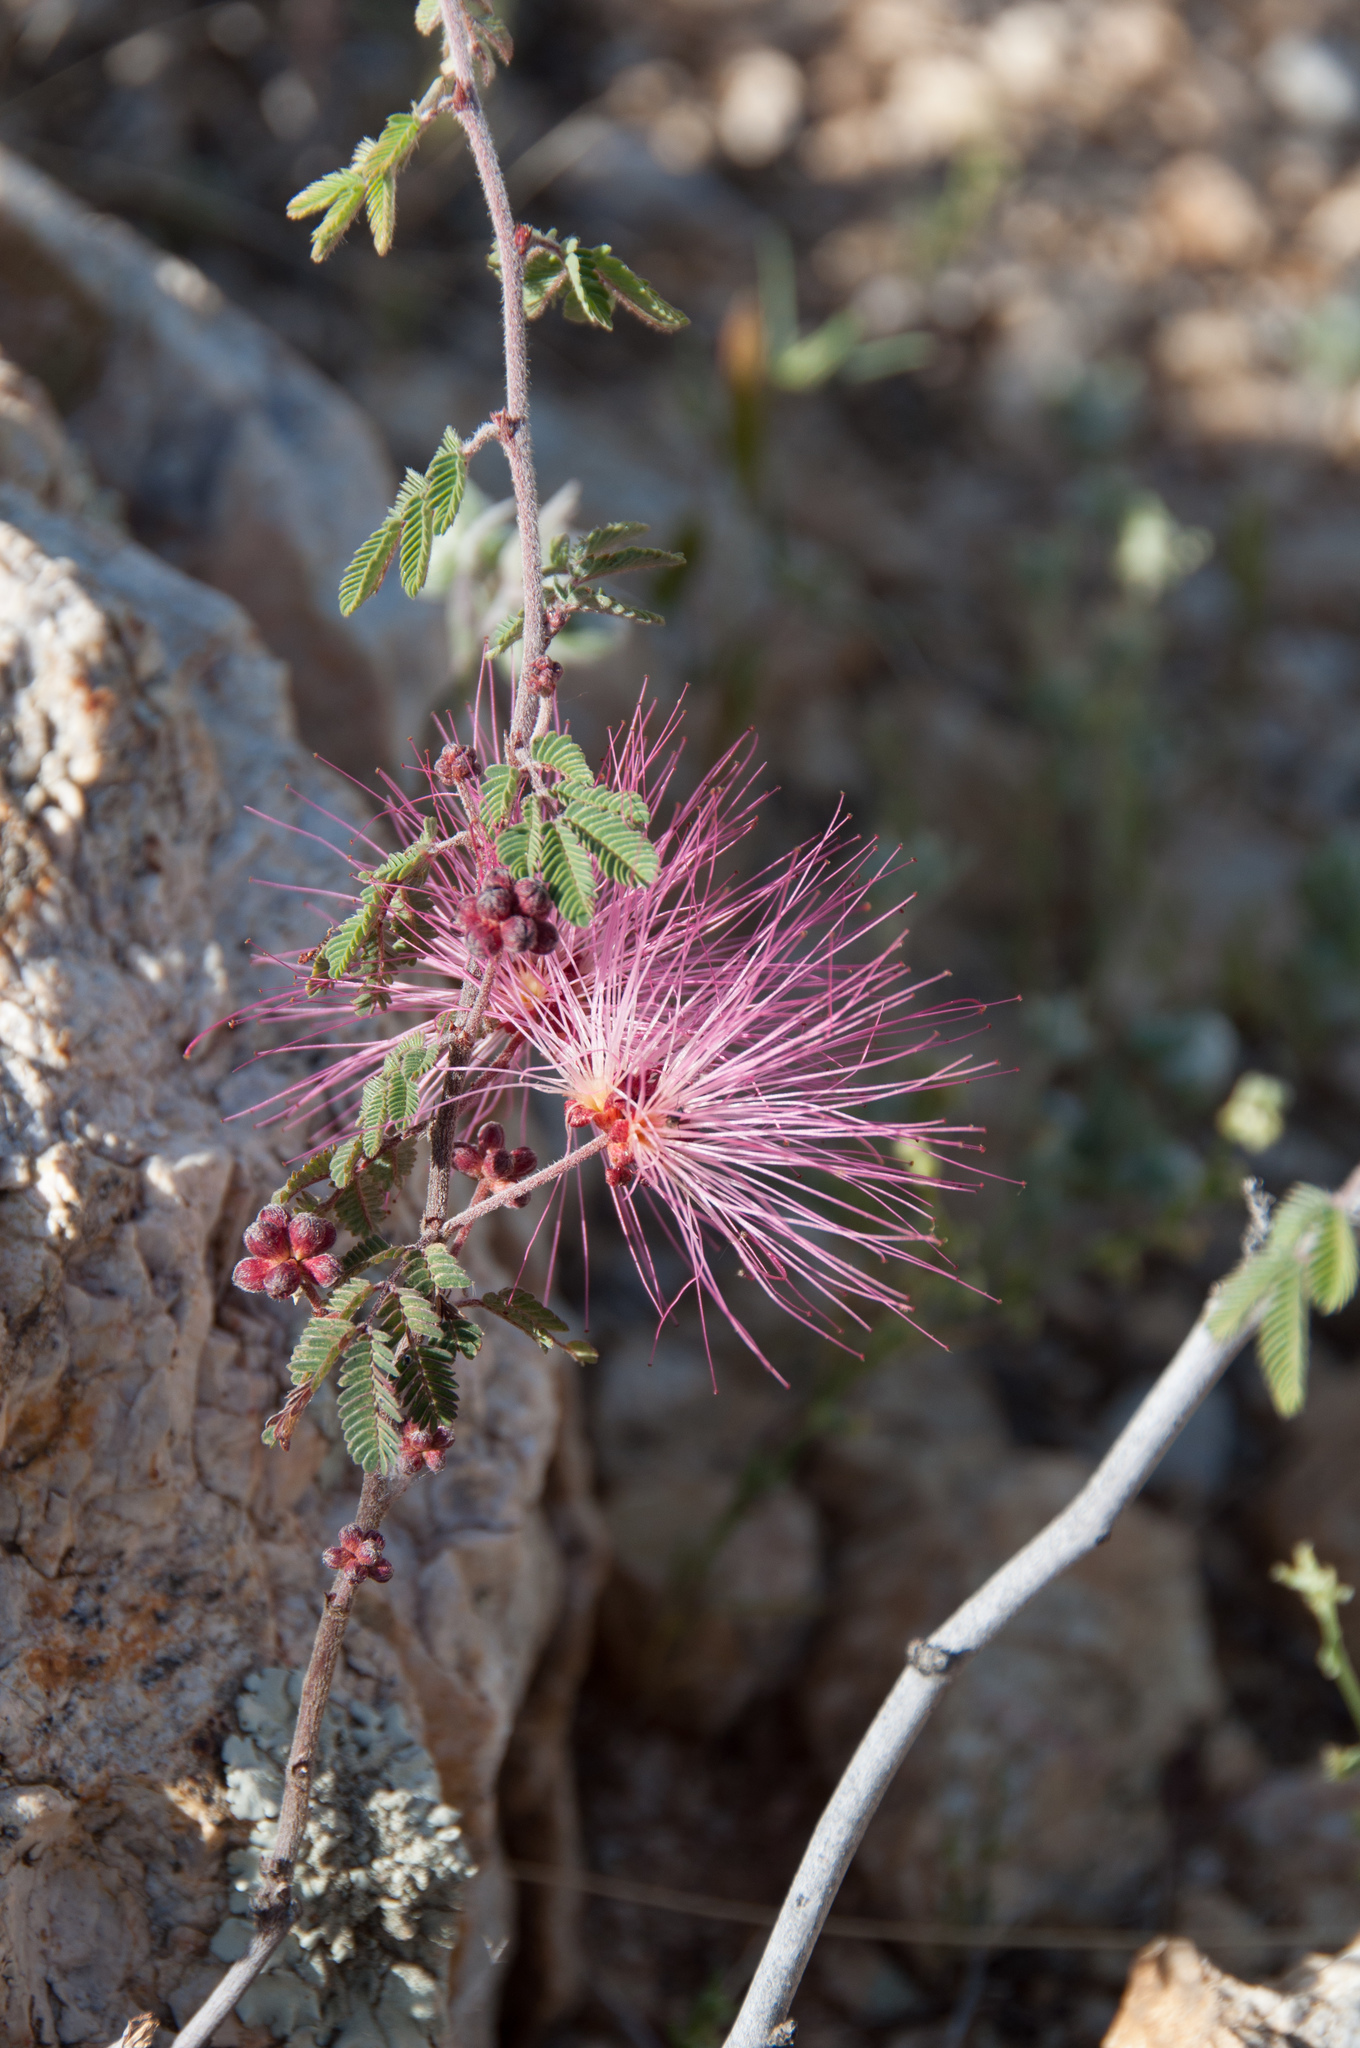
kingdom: Plantae
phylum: Tracheophyta
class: Magnoliopsida
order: Fabales
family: Fabaceae
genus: Calliandra
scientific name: Calliandra eriophylla
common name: Fairy-duster
